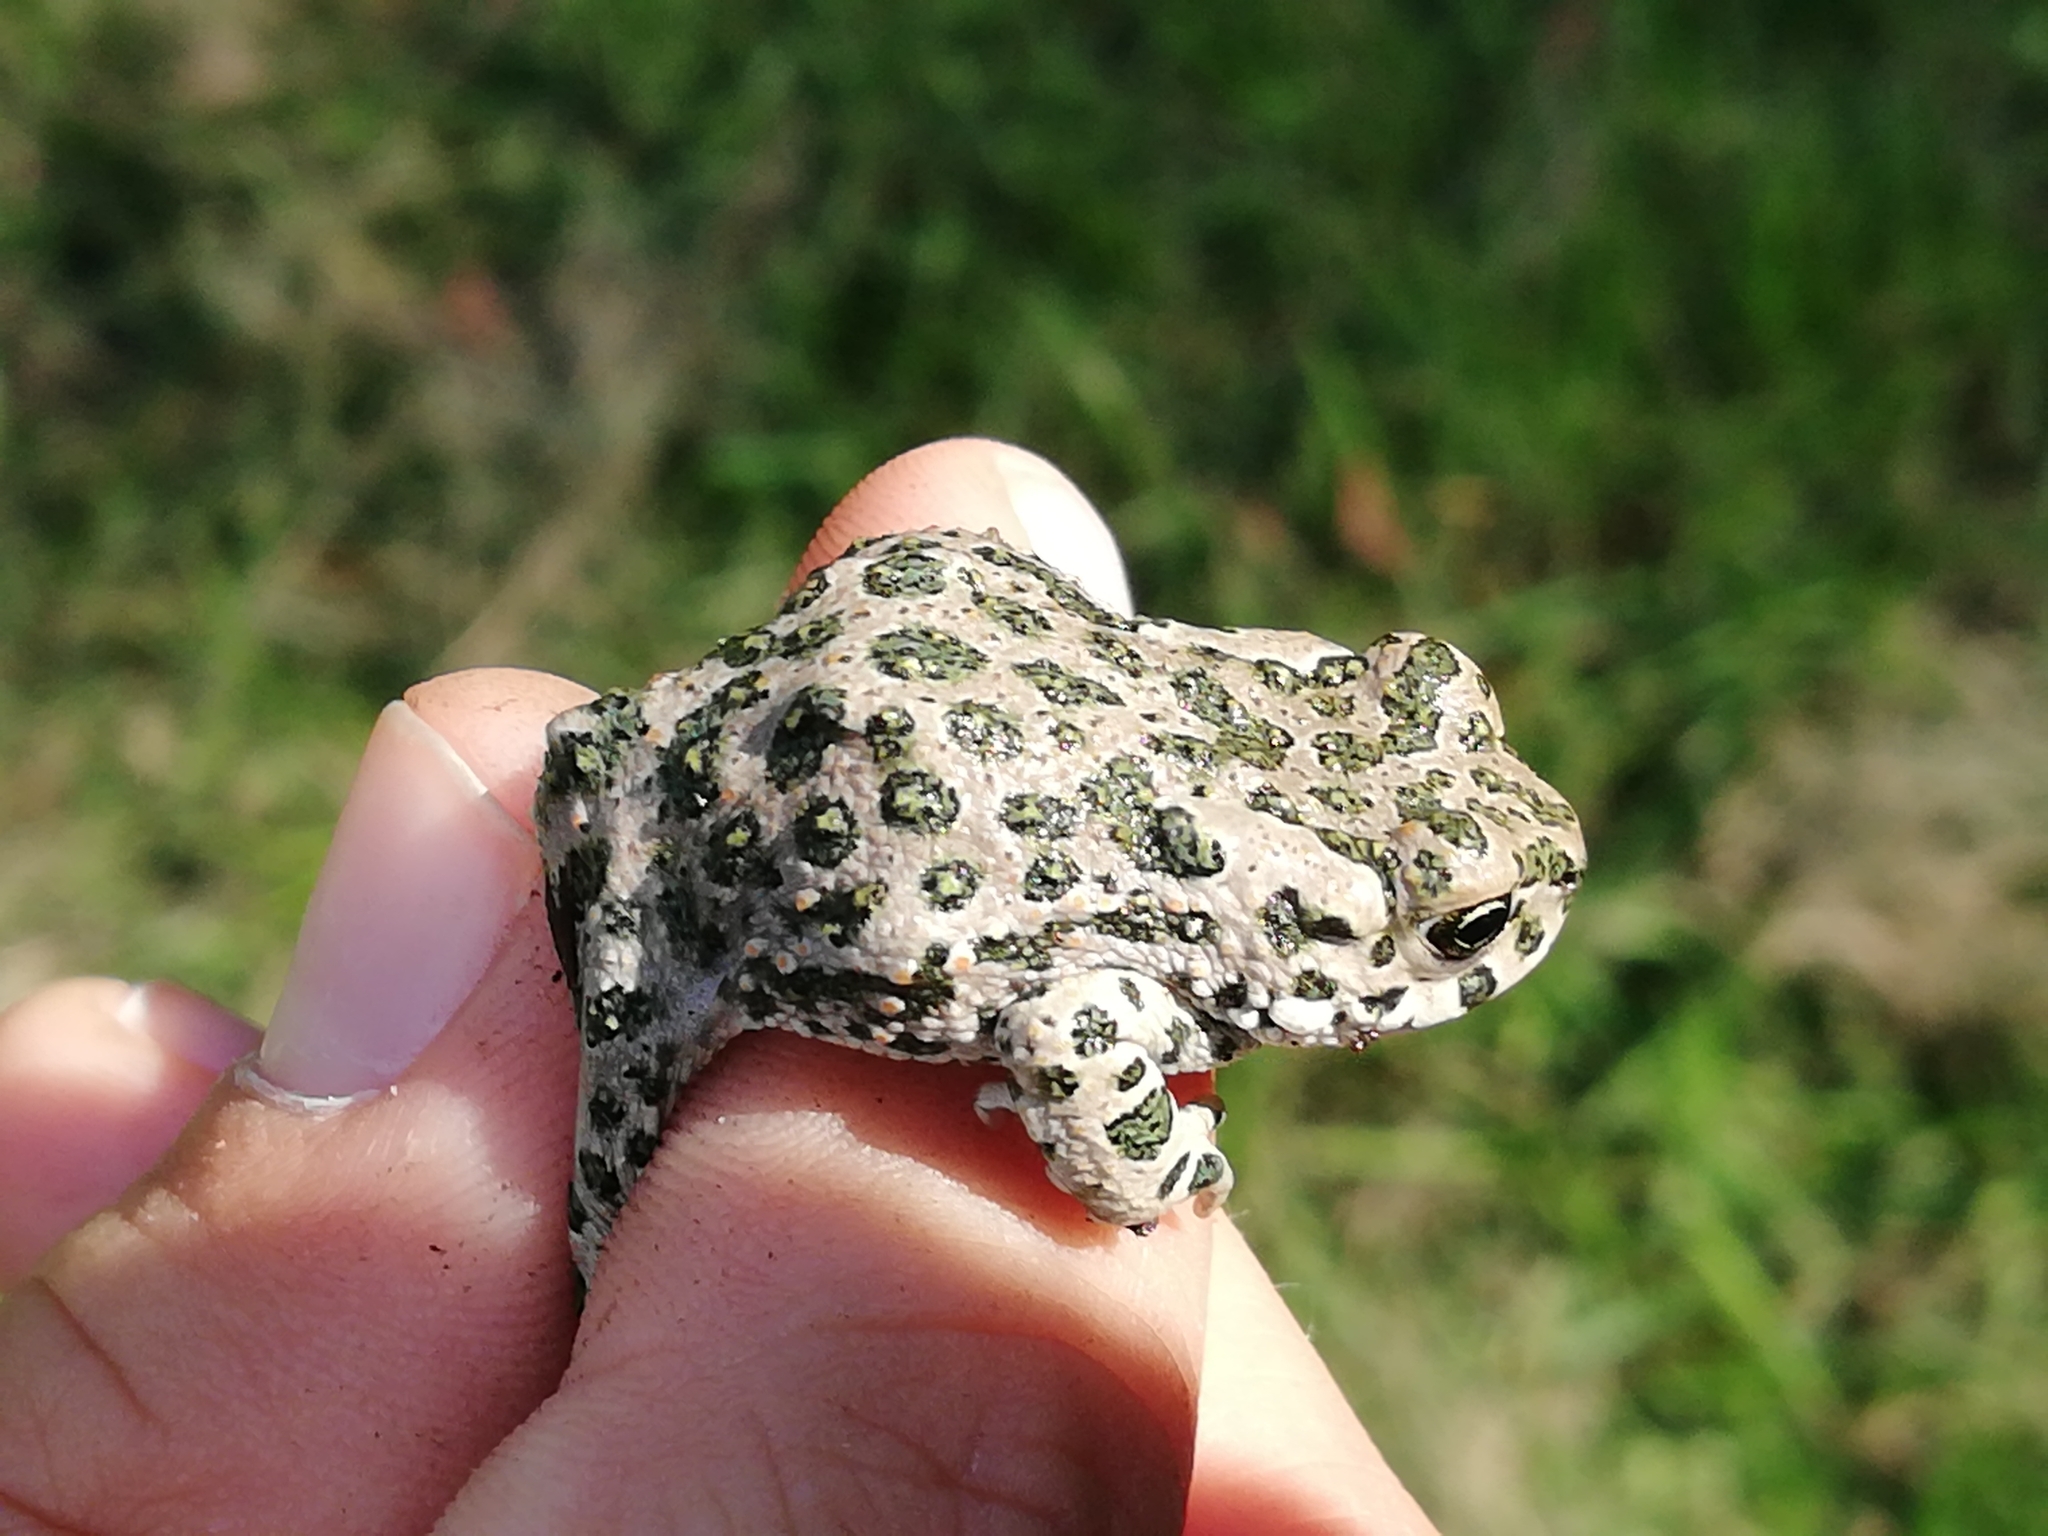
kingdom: Animalia
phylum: Chordata
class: Amphibia
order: Anura
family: Bufonidae
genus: Bufotes
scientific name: Bufotes viridis
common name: European green toad
